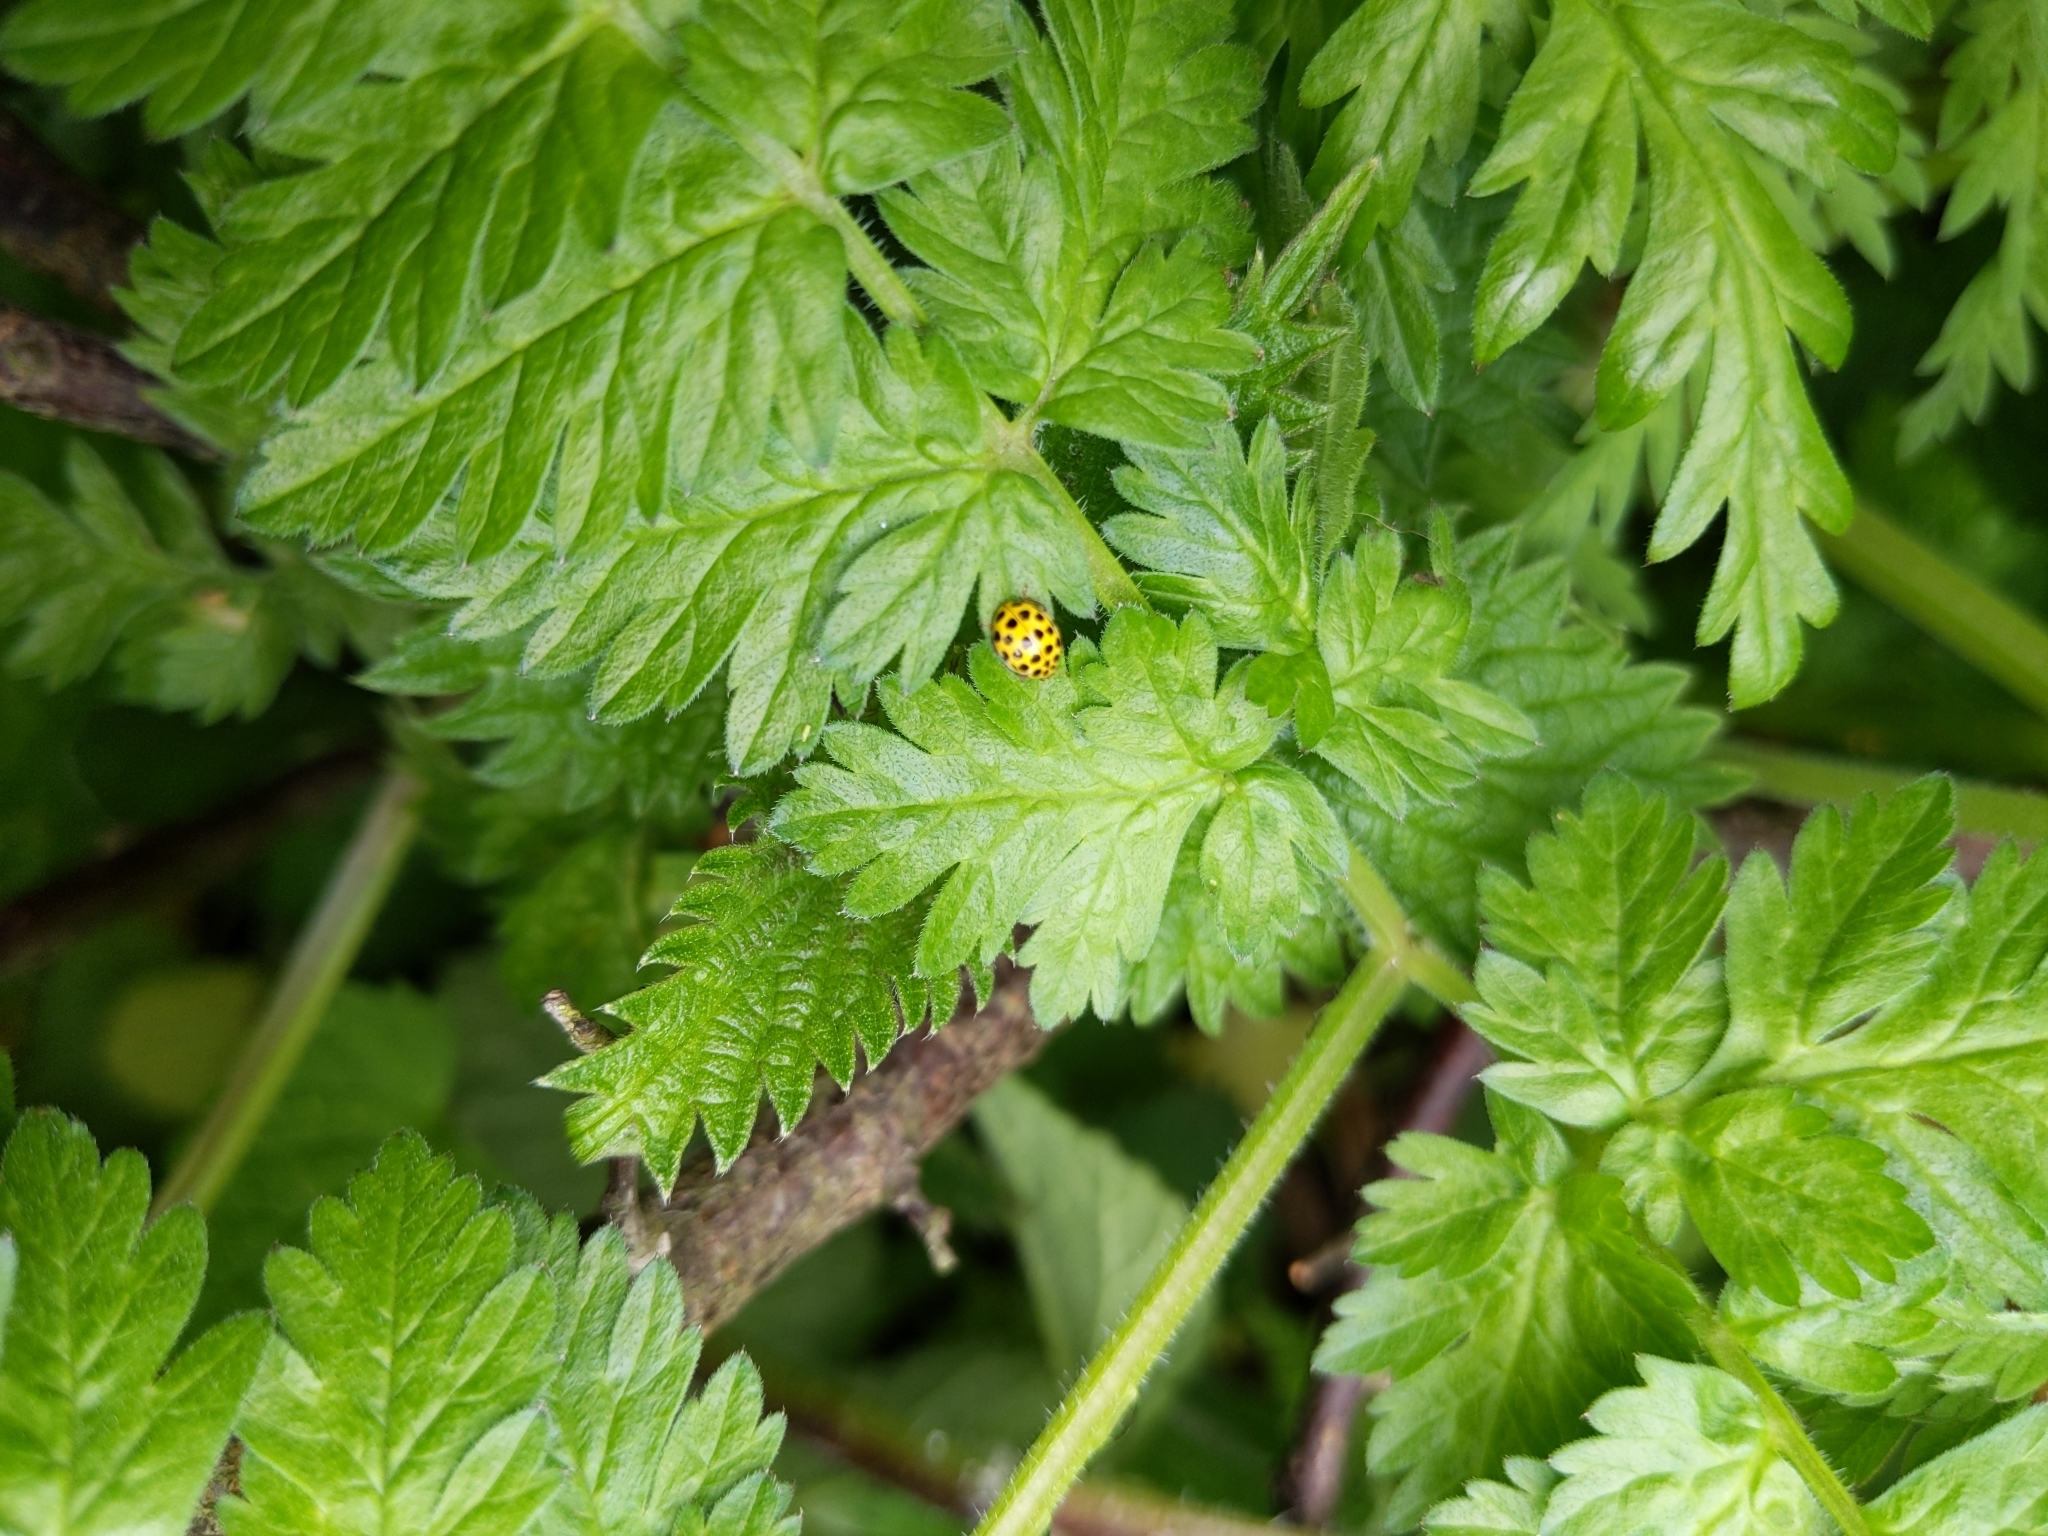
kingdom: Animalia
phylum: Arthropoda
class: Insecta
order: Coleoptera
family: Coccinellidae
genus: Psyllobora
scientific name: Psyllobora vigintiduopunctata
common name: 22-spot ladybird
